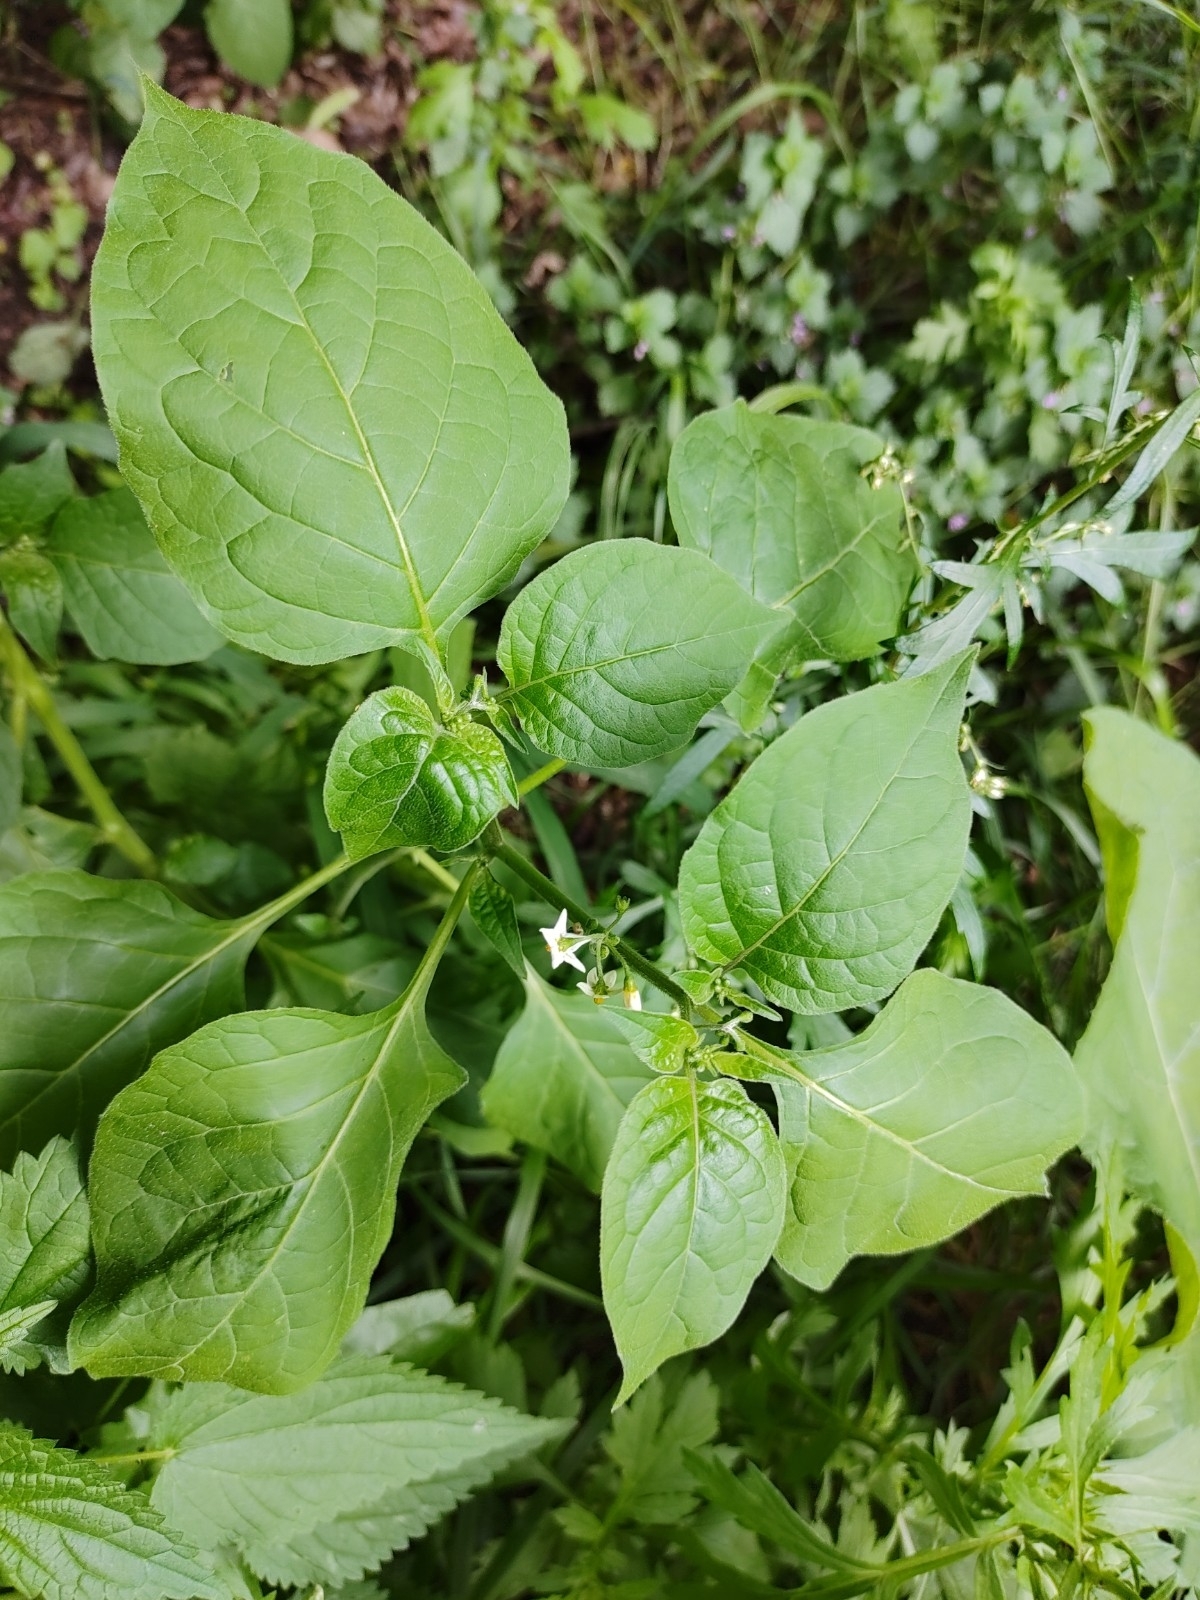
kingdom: Plantae
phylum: Tracheophyta
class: Magnoliopsida
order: Solanales
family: Solanaceae
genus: Solanum
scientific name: Solanum nigrum
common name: Black nightshade
